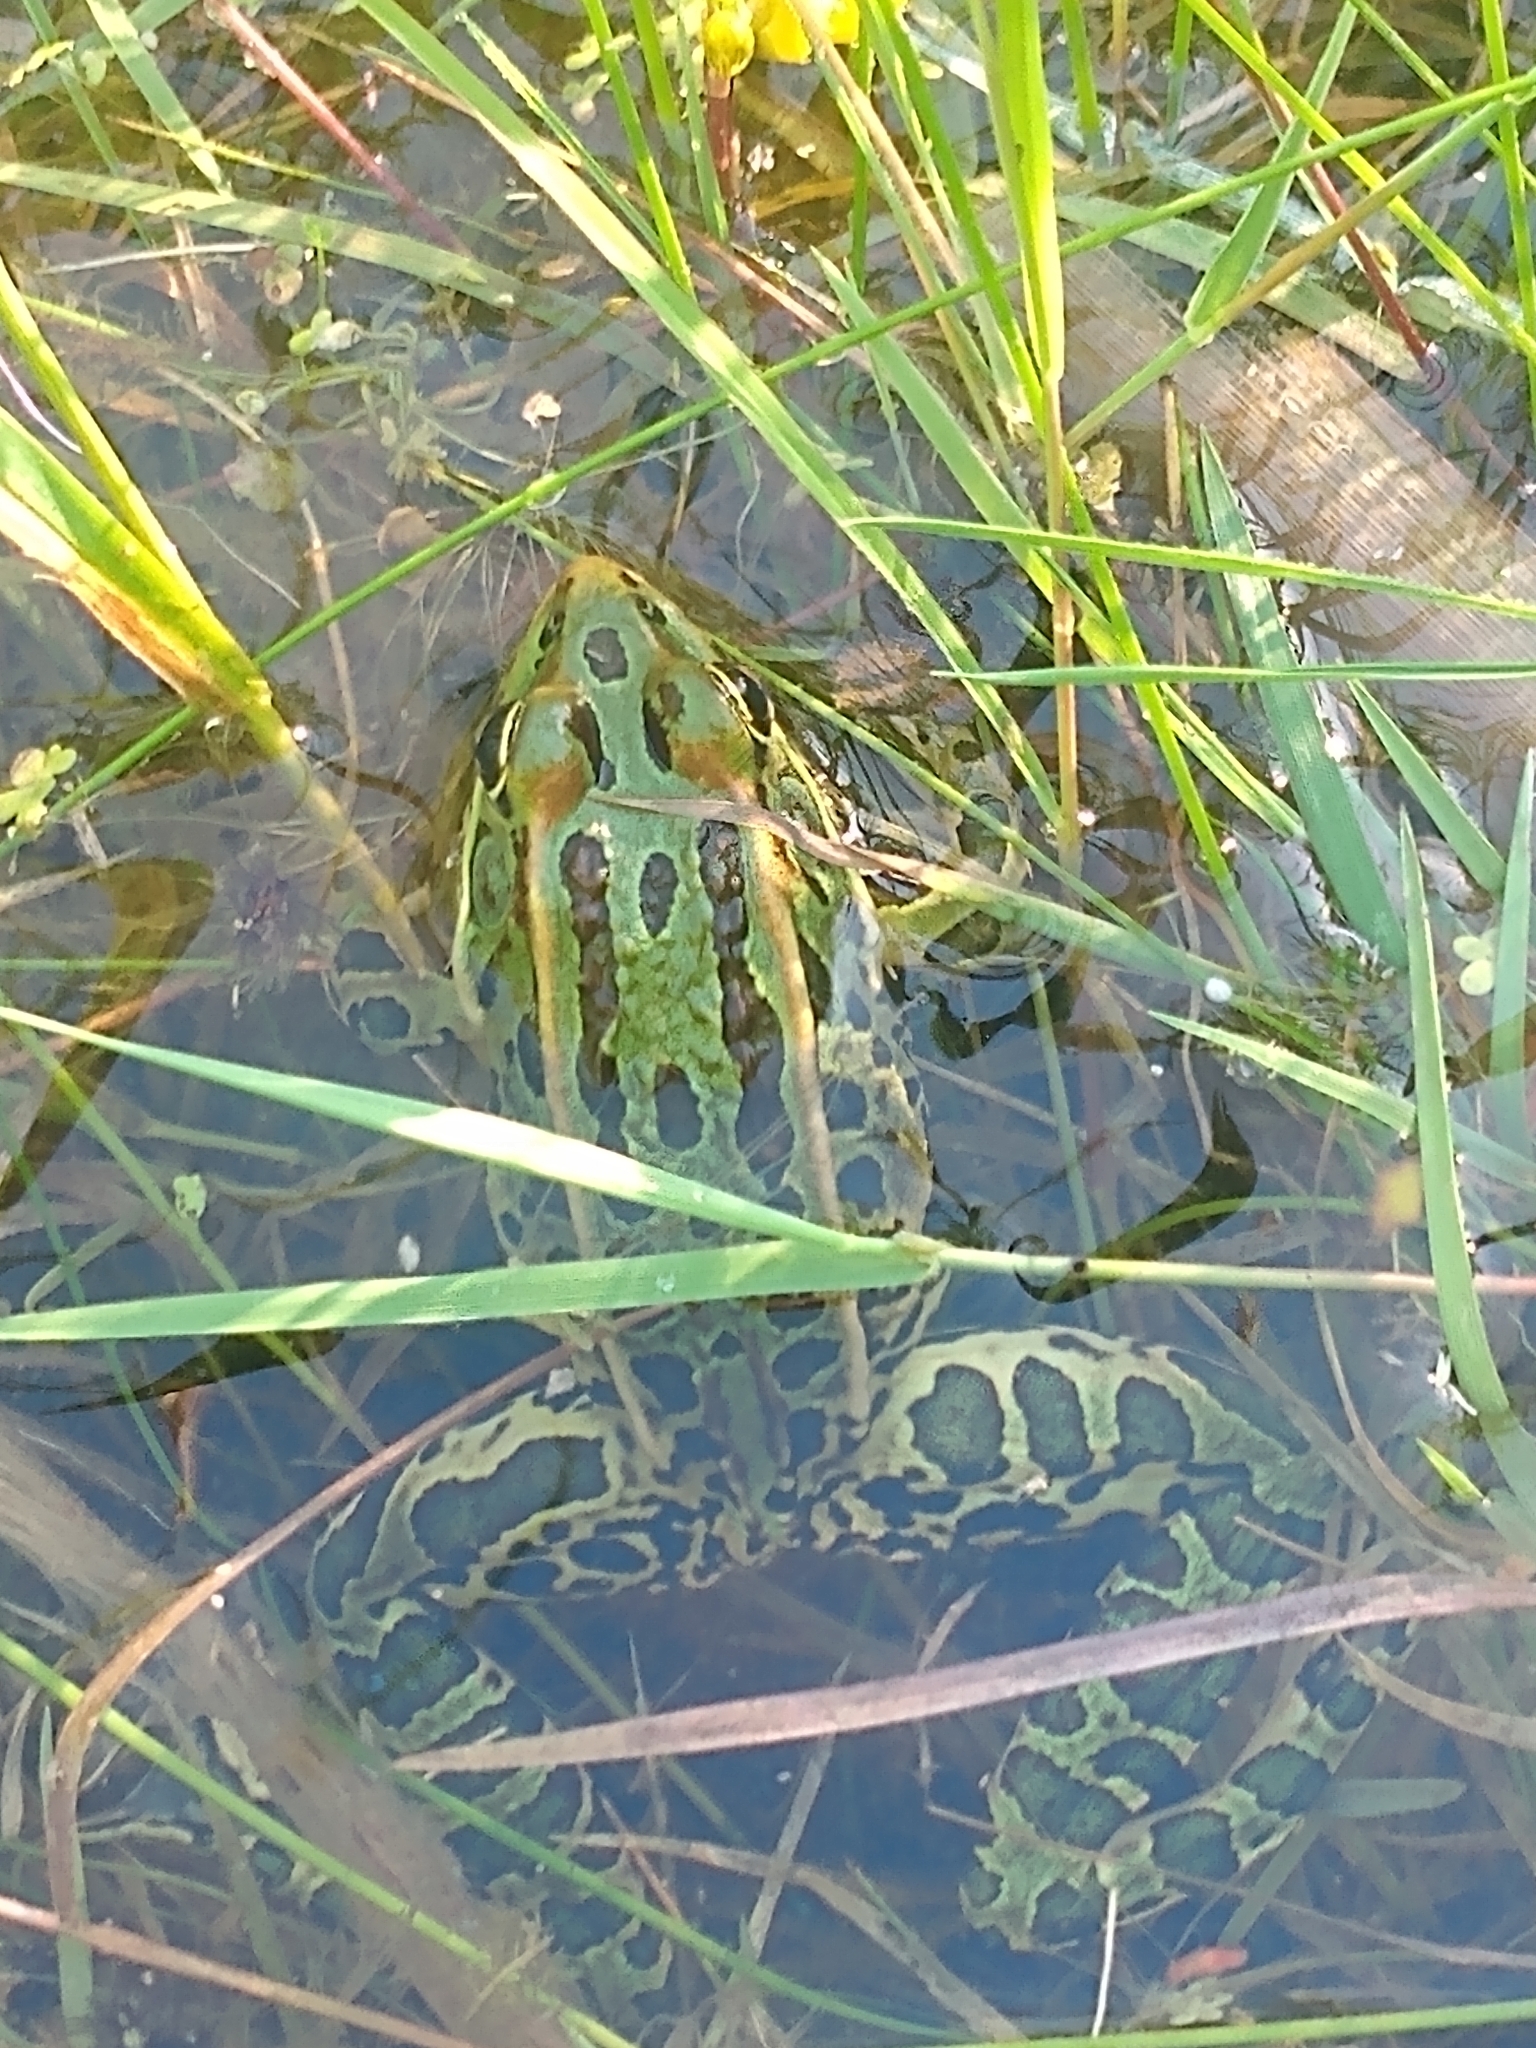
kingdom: Animalia
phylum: Chordata
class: Amphibia
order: Anura
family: Ranidae
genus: Lithobates
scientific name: Lithobates pipiens
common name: Northern leopard frog
